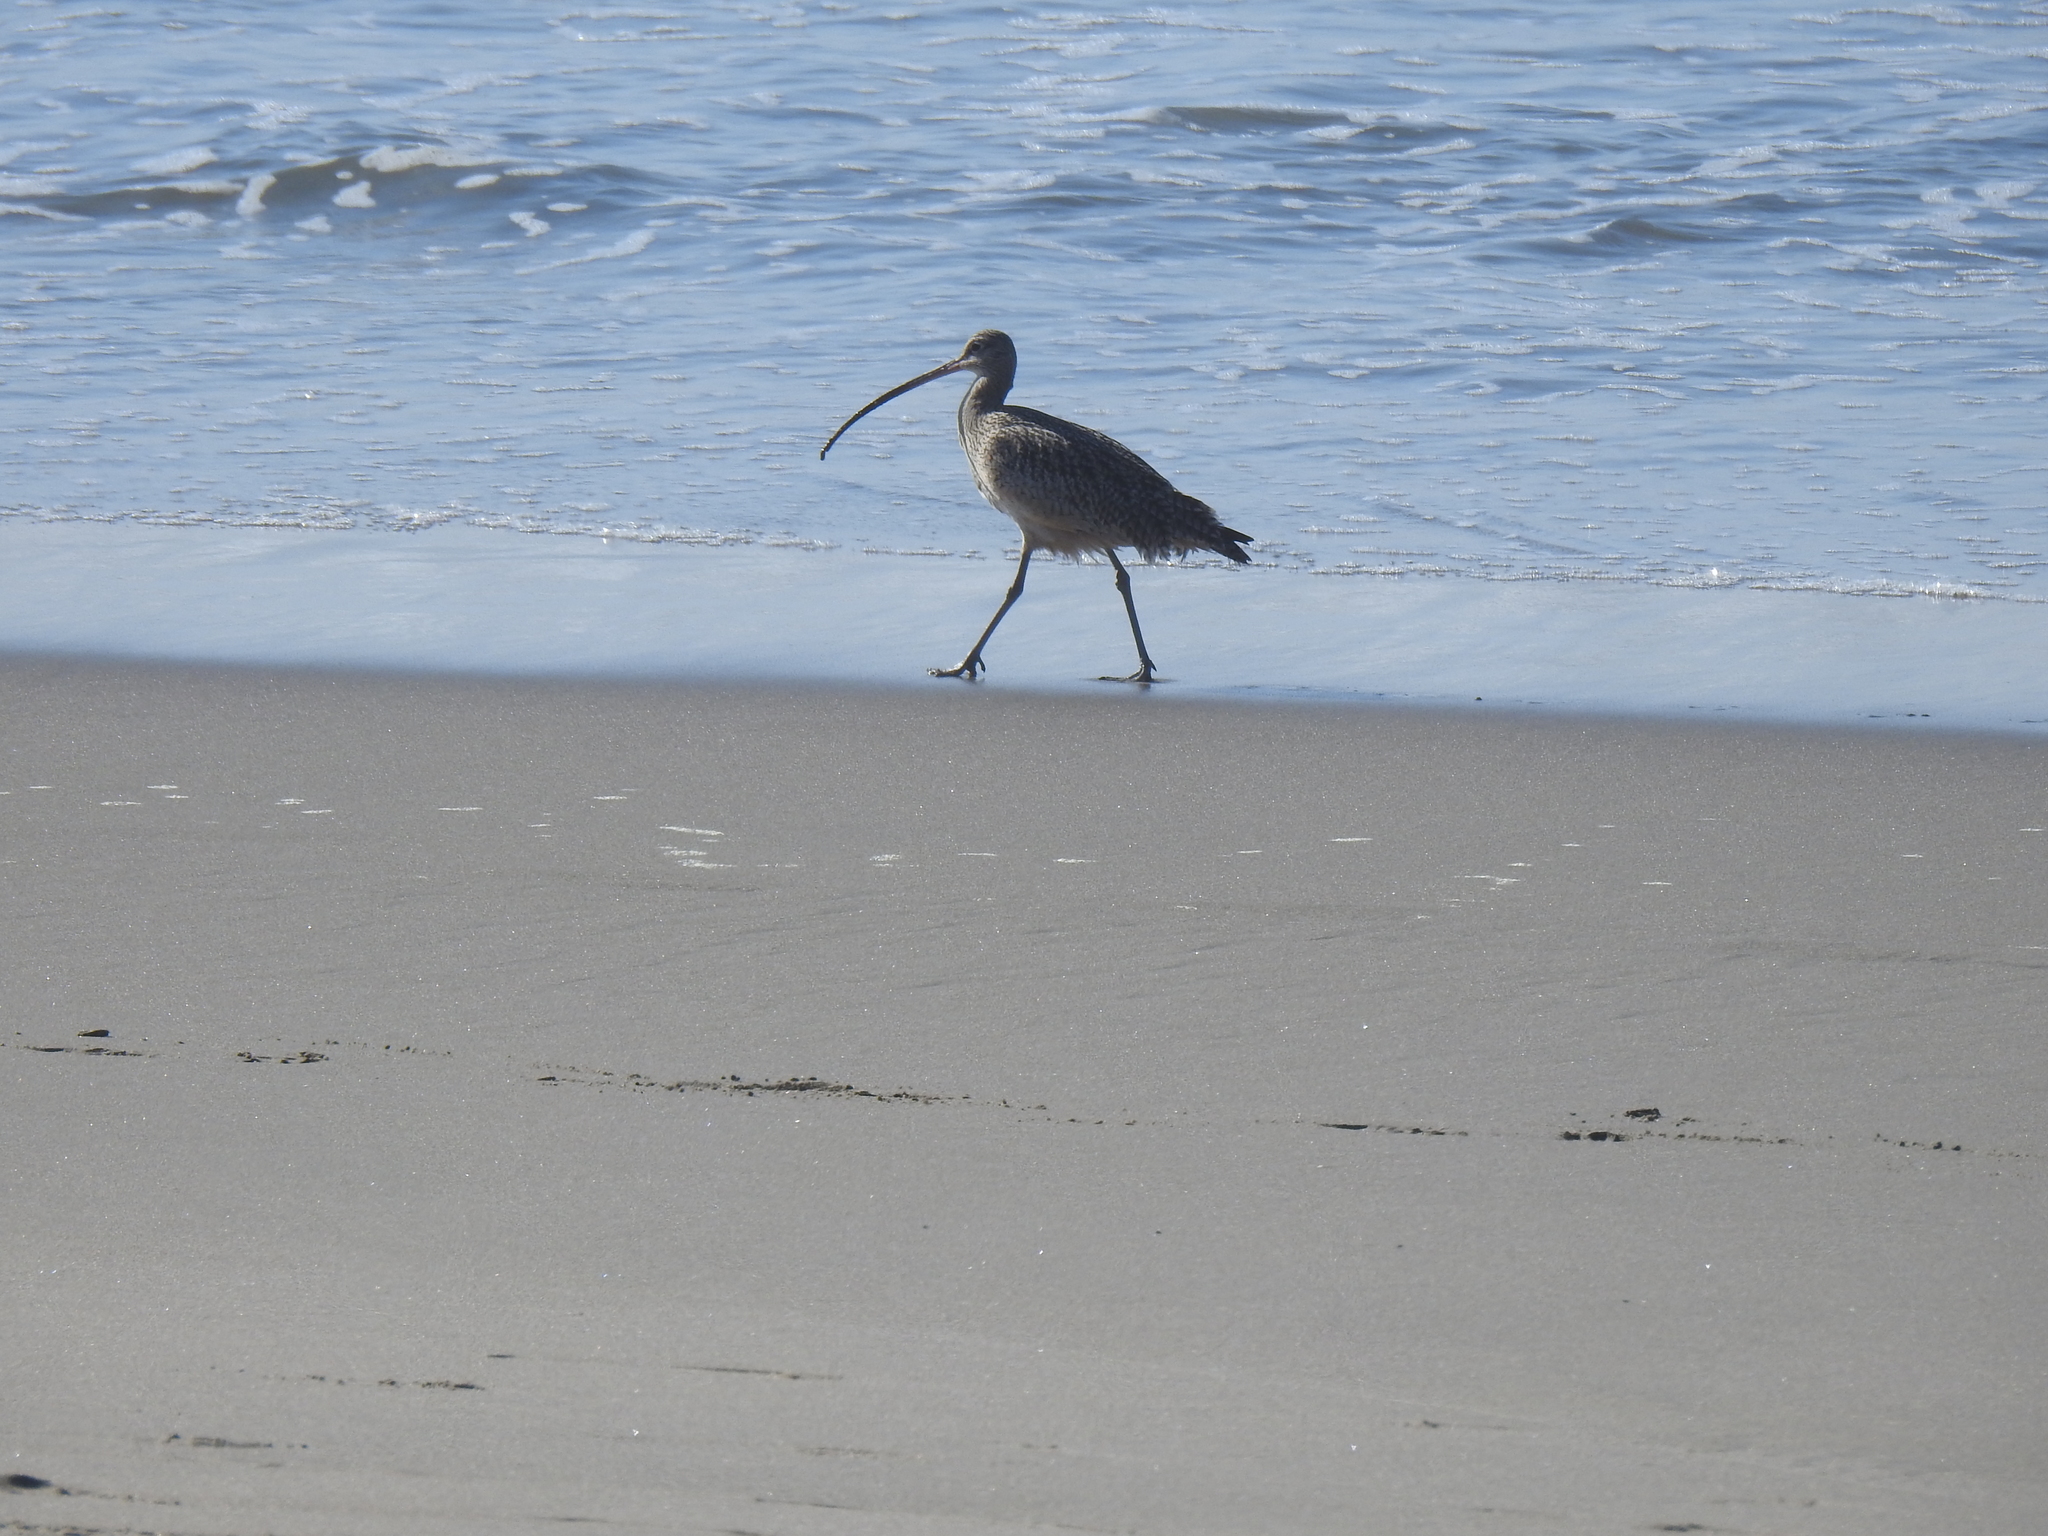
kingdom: Animalia
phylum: Chordata
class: Aves
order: Charadriiformes
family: Scolopacidae
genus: Numenius
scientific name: Numenius americanus
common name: Long-billed curlew
